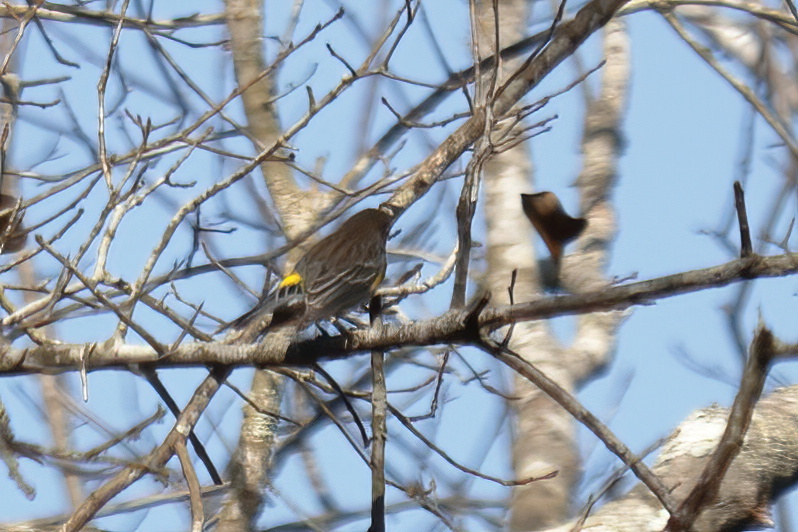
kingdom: Animalia
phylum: Chordata
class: Aves
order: Passeriformes
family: Parulidae
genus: Setophaga
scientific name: Setophaga coronata
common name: Myrtle warbler
